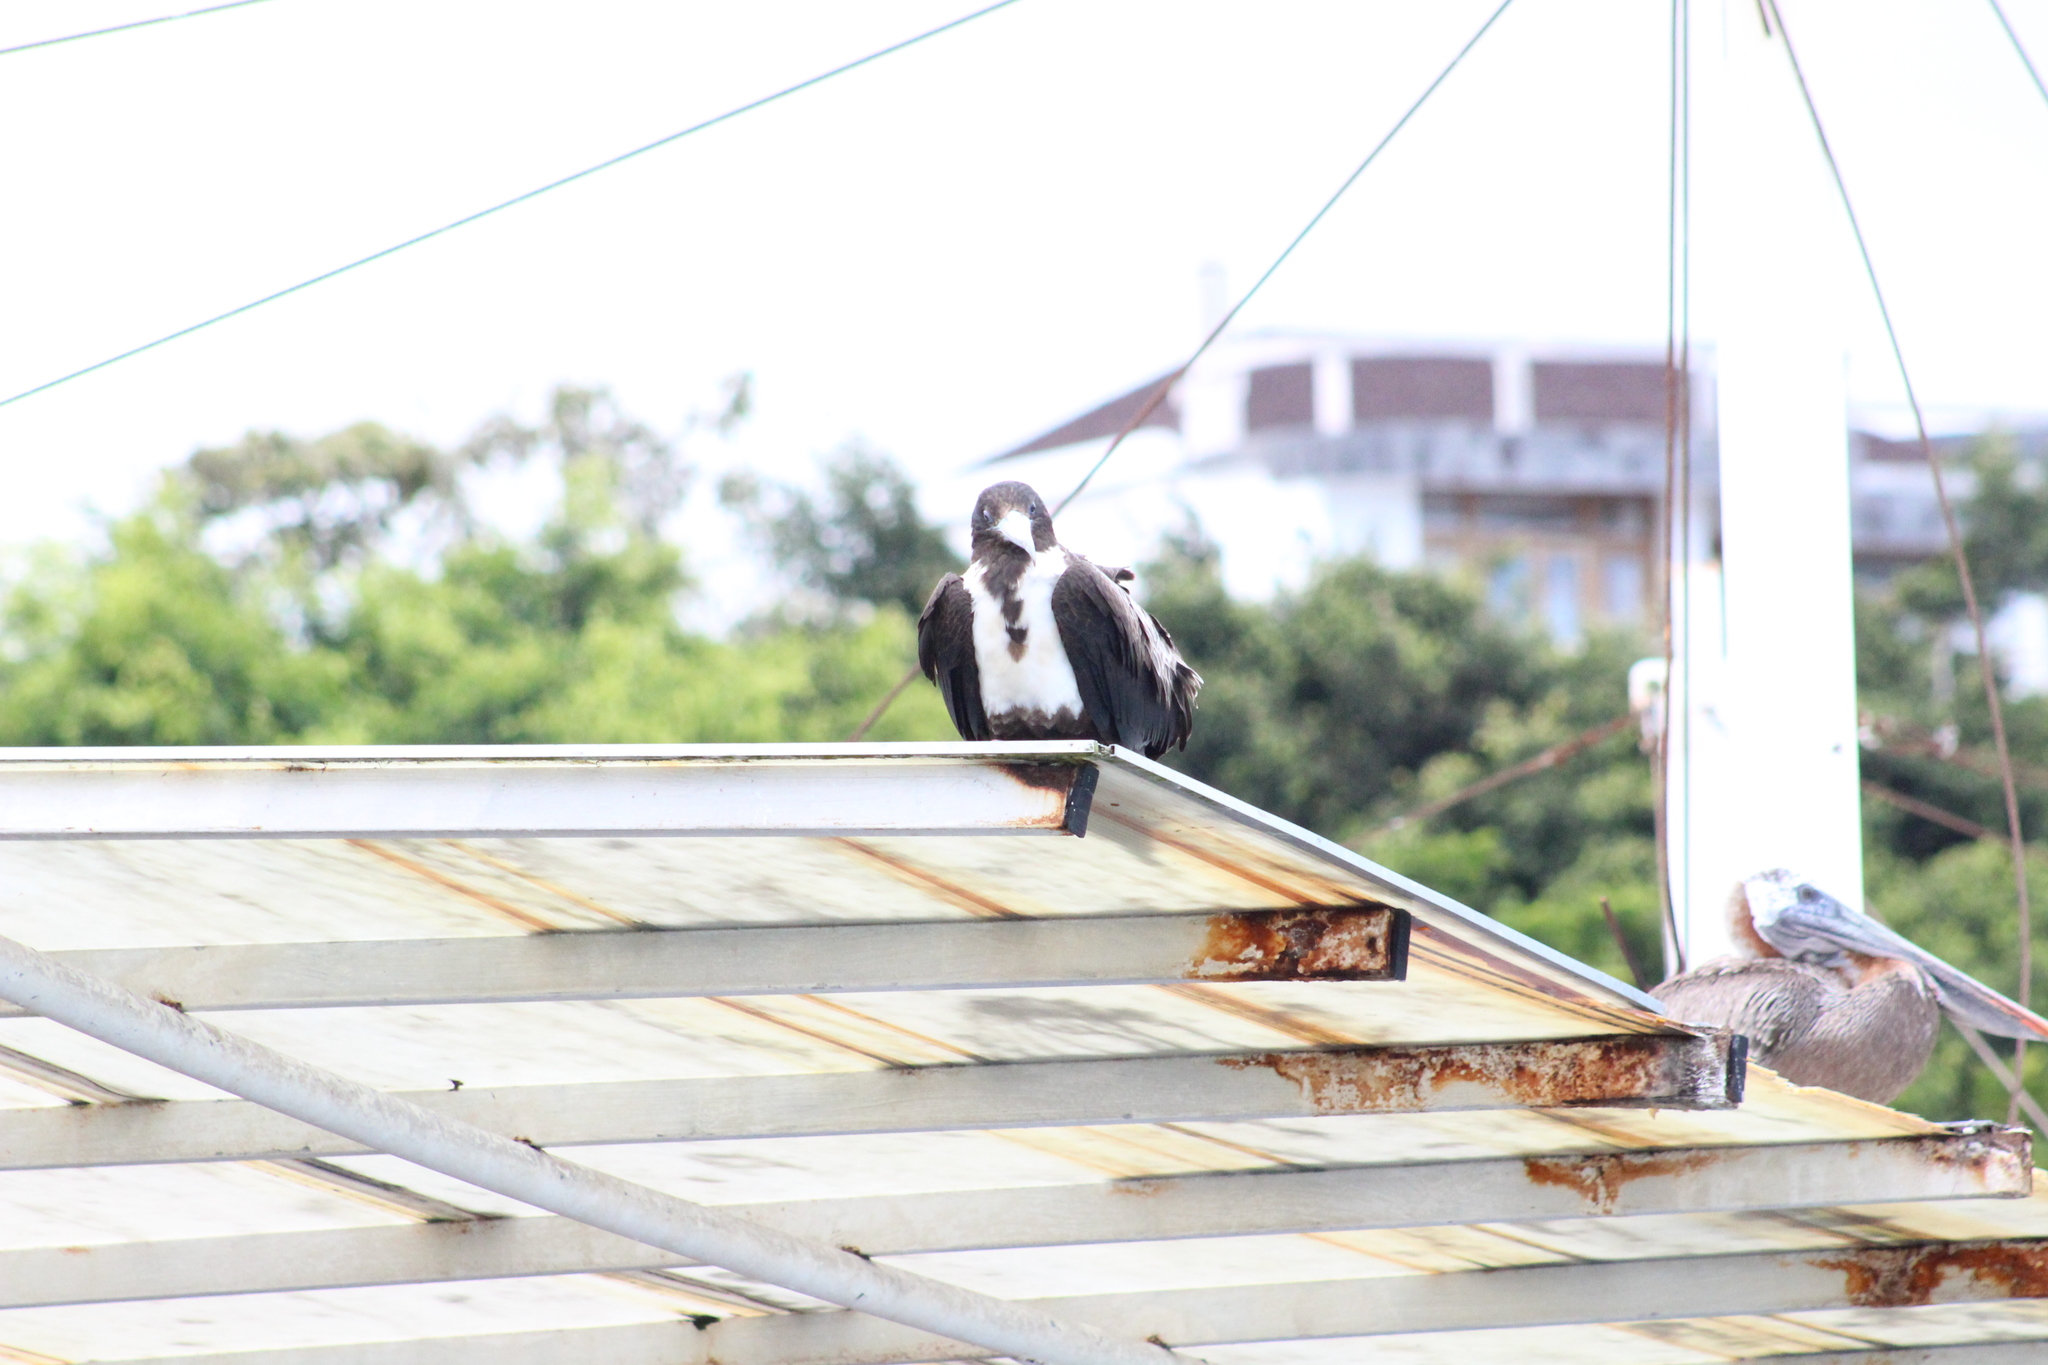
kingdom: Animalia
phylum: Chordata
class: Aves
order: Suliformes
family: Fregatidae
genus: Fregata
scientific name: Fregata magnificens
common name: Magnificent frigatebird
